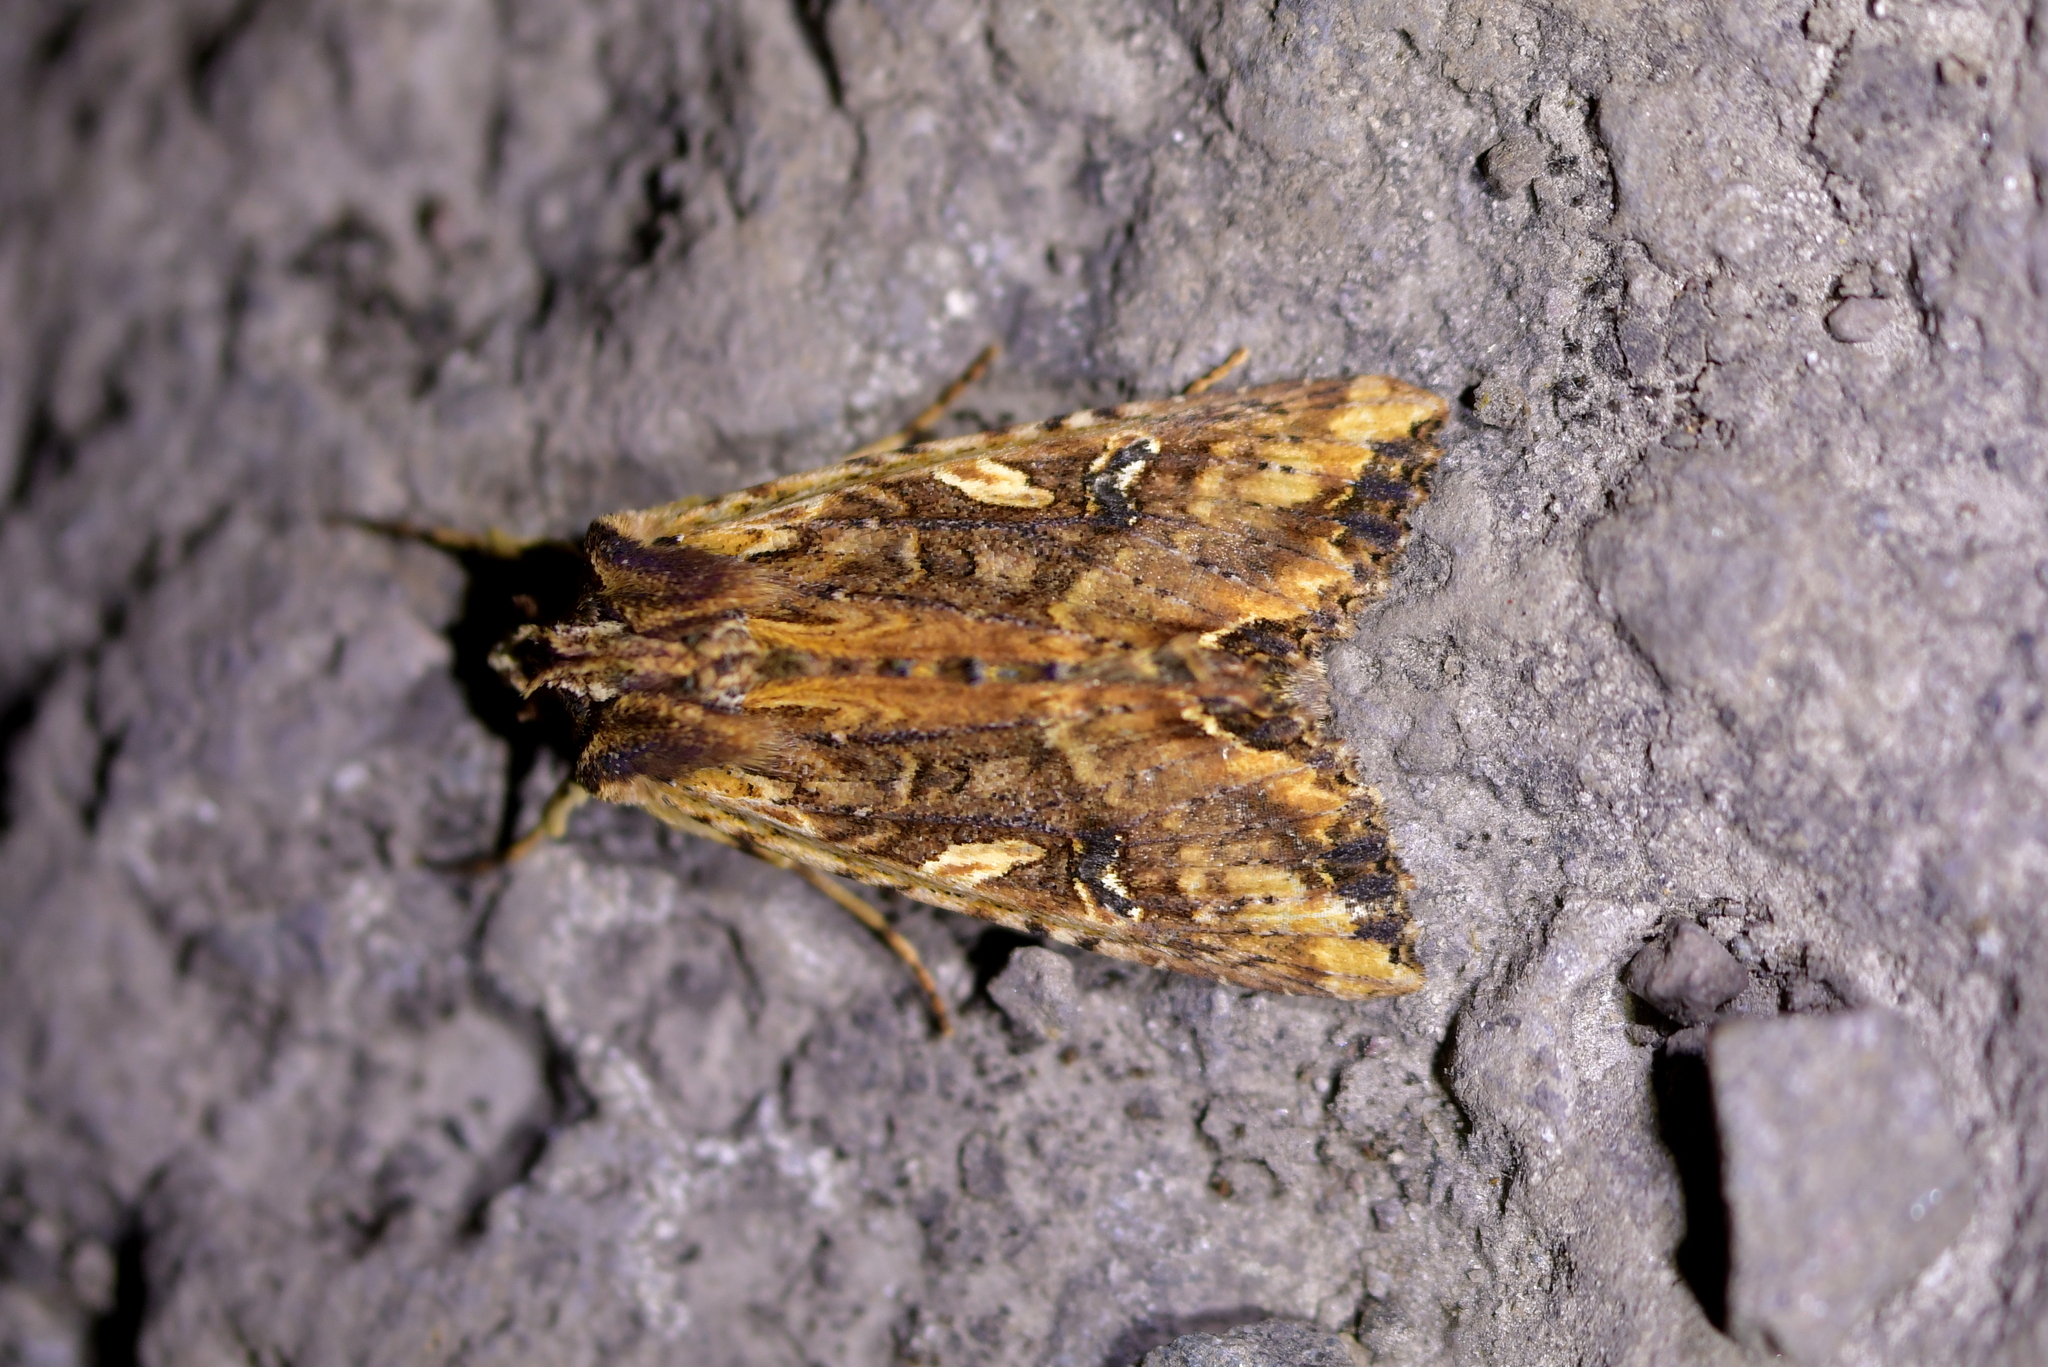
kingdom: Animalia
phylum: Arthropoda
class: Insecta
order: Lepidoptera
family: Noctuidae
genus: Meterana
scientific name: Meterana stipata
